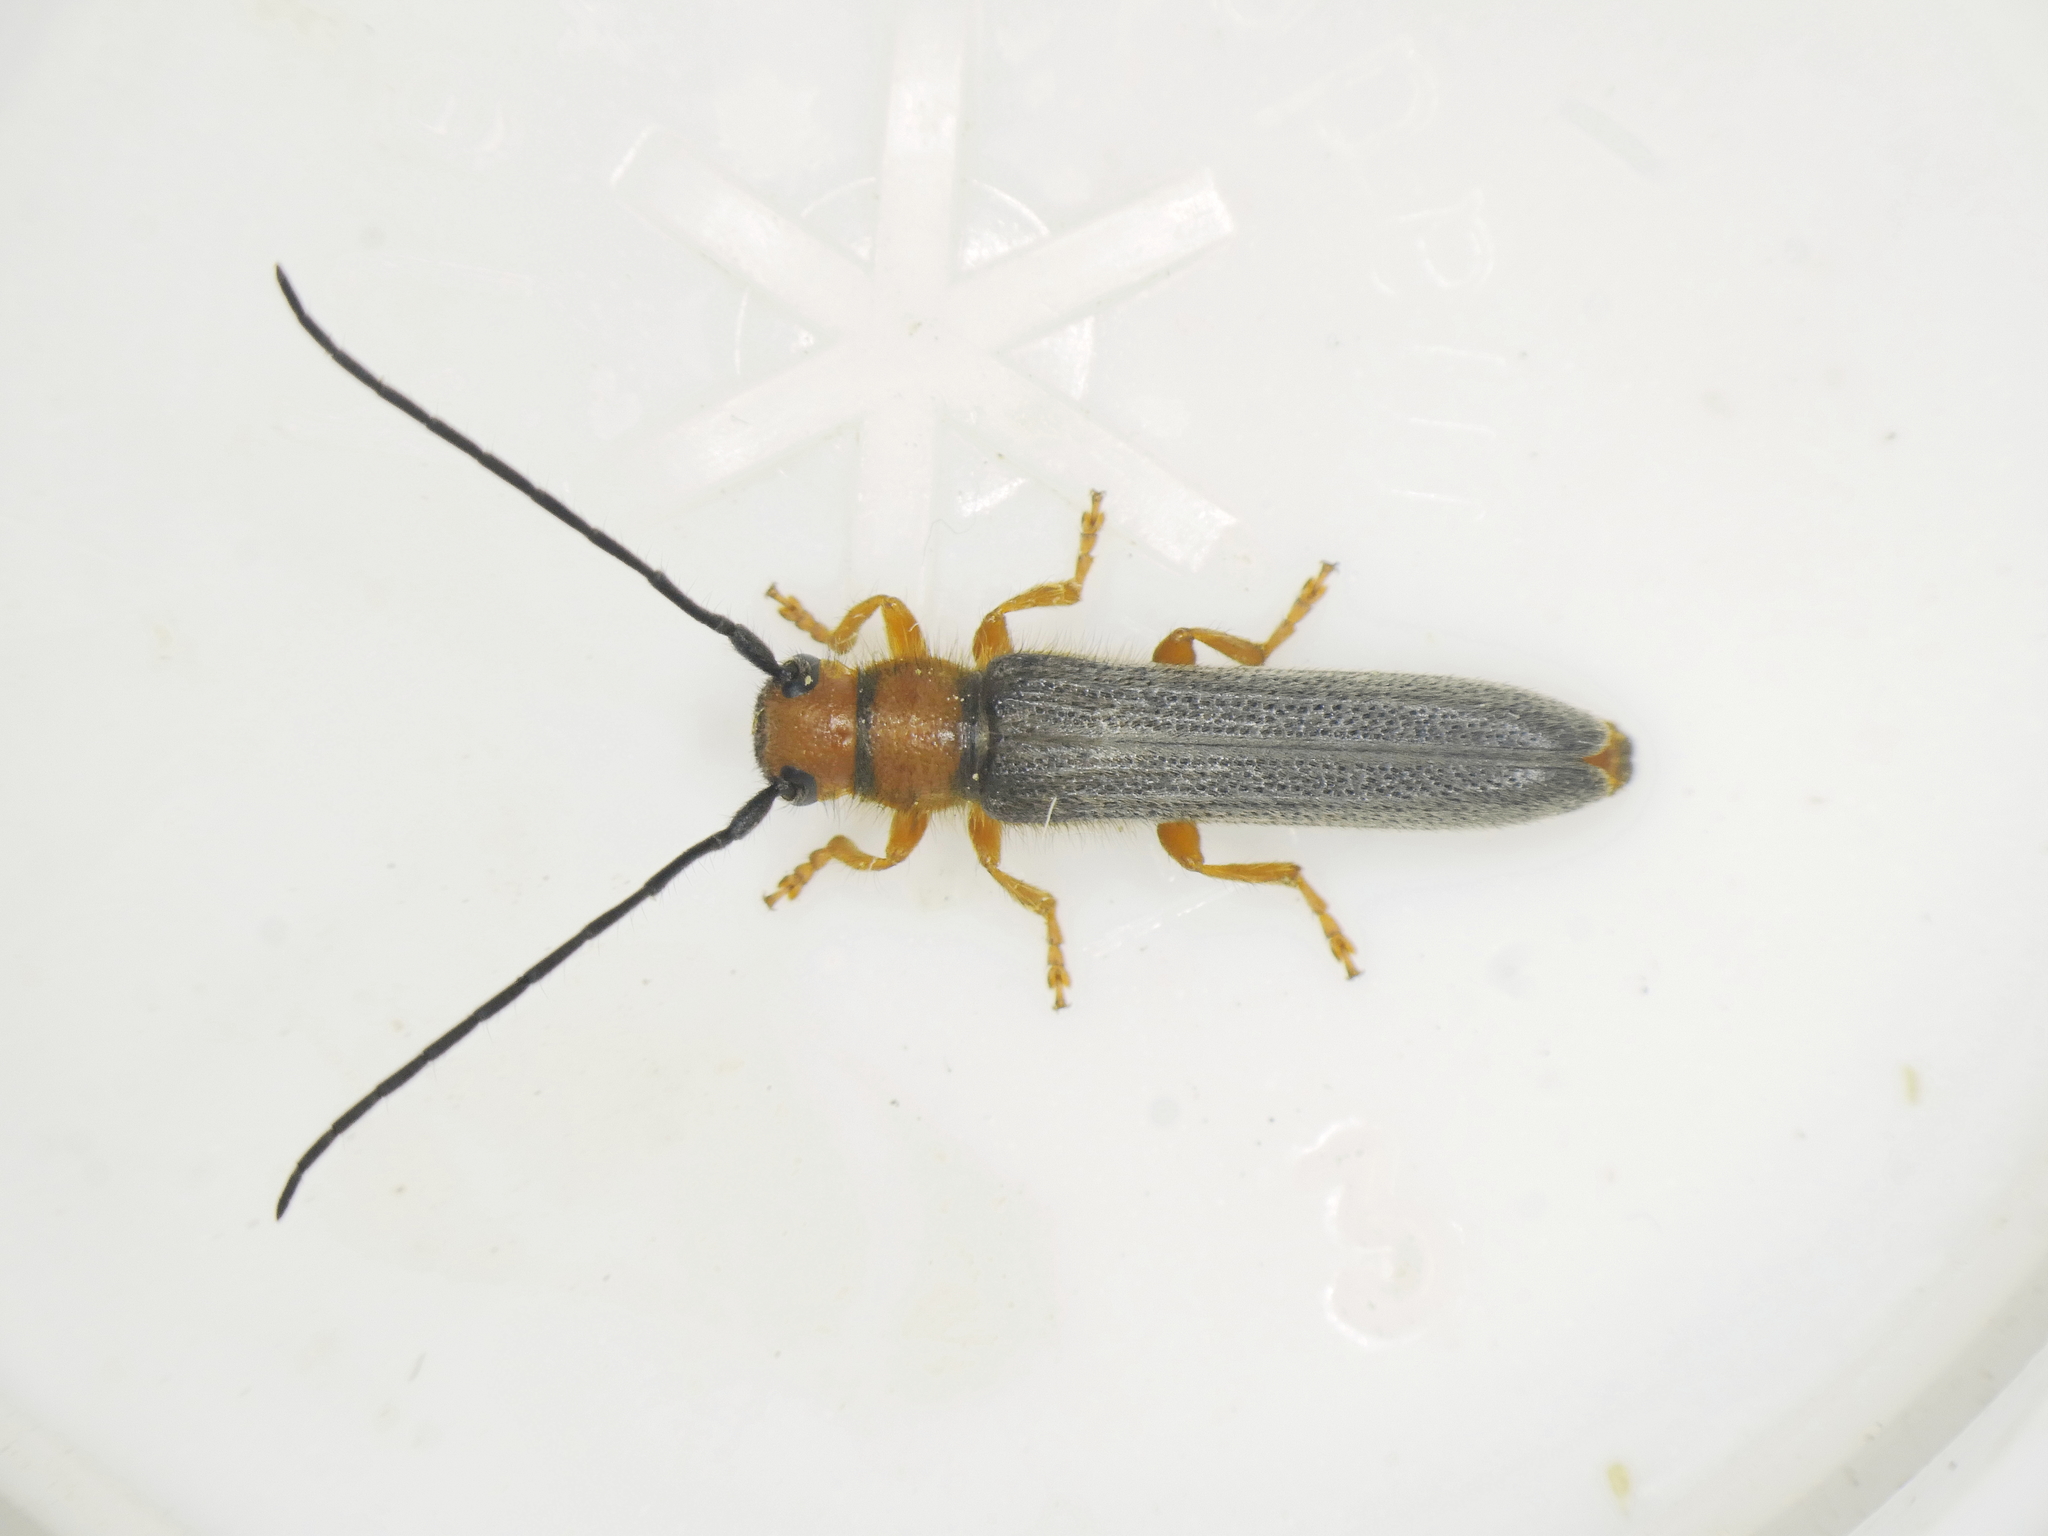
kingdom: Animalia
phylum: Arthropoda
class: Insecta
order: Coleoptera
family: Cerambycidae
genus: Oberea
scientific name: Oberea erythrocephala
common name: Leafy spurge stem boring beetle
